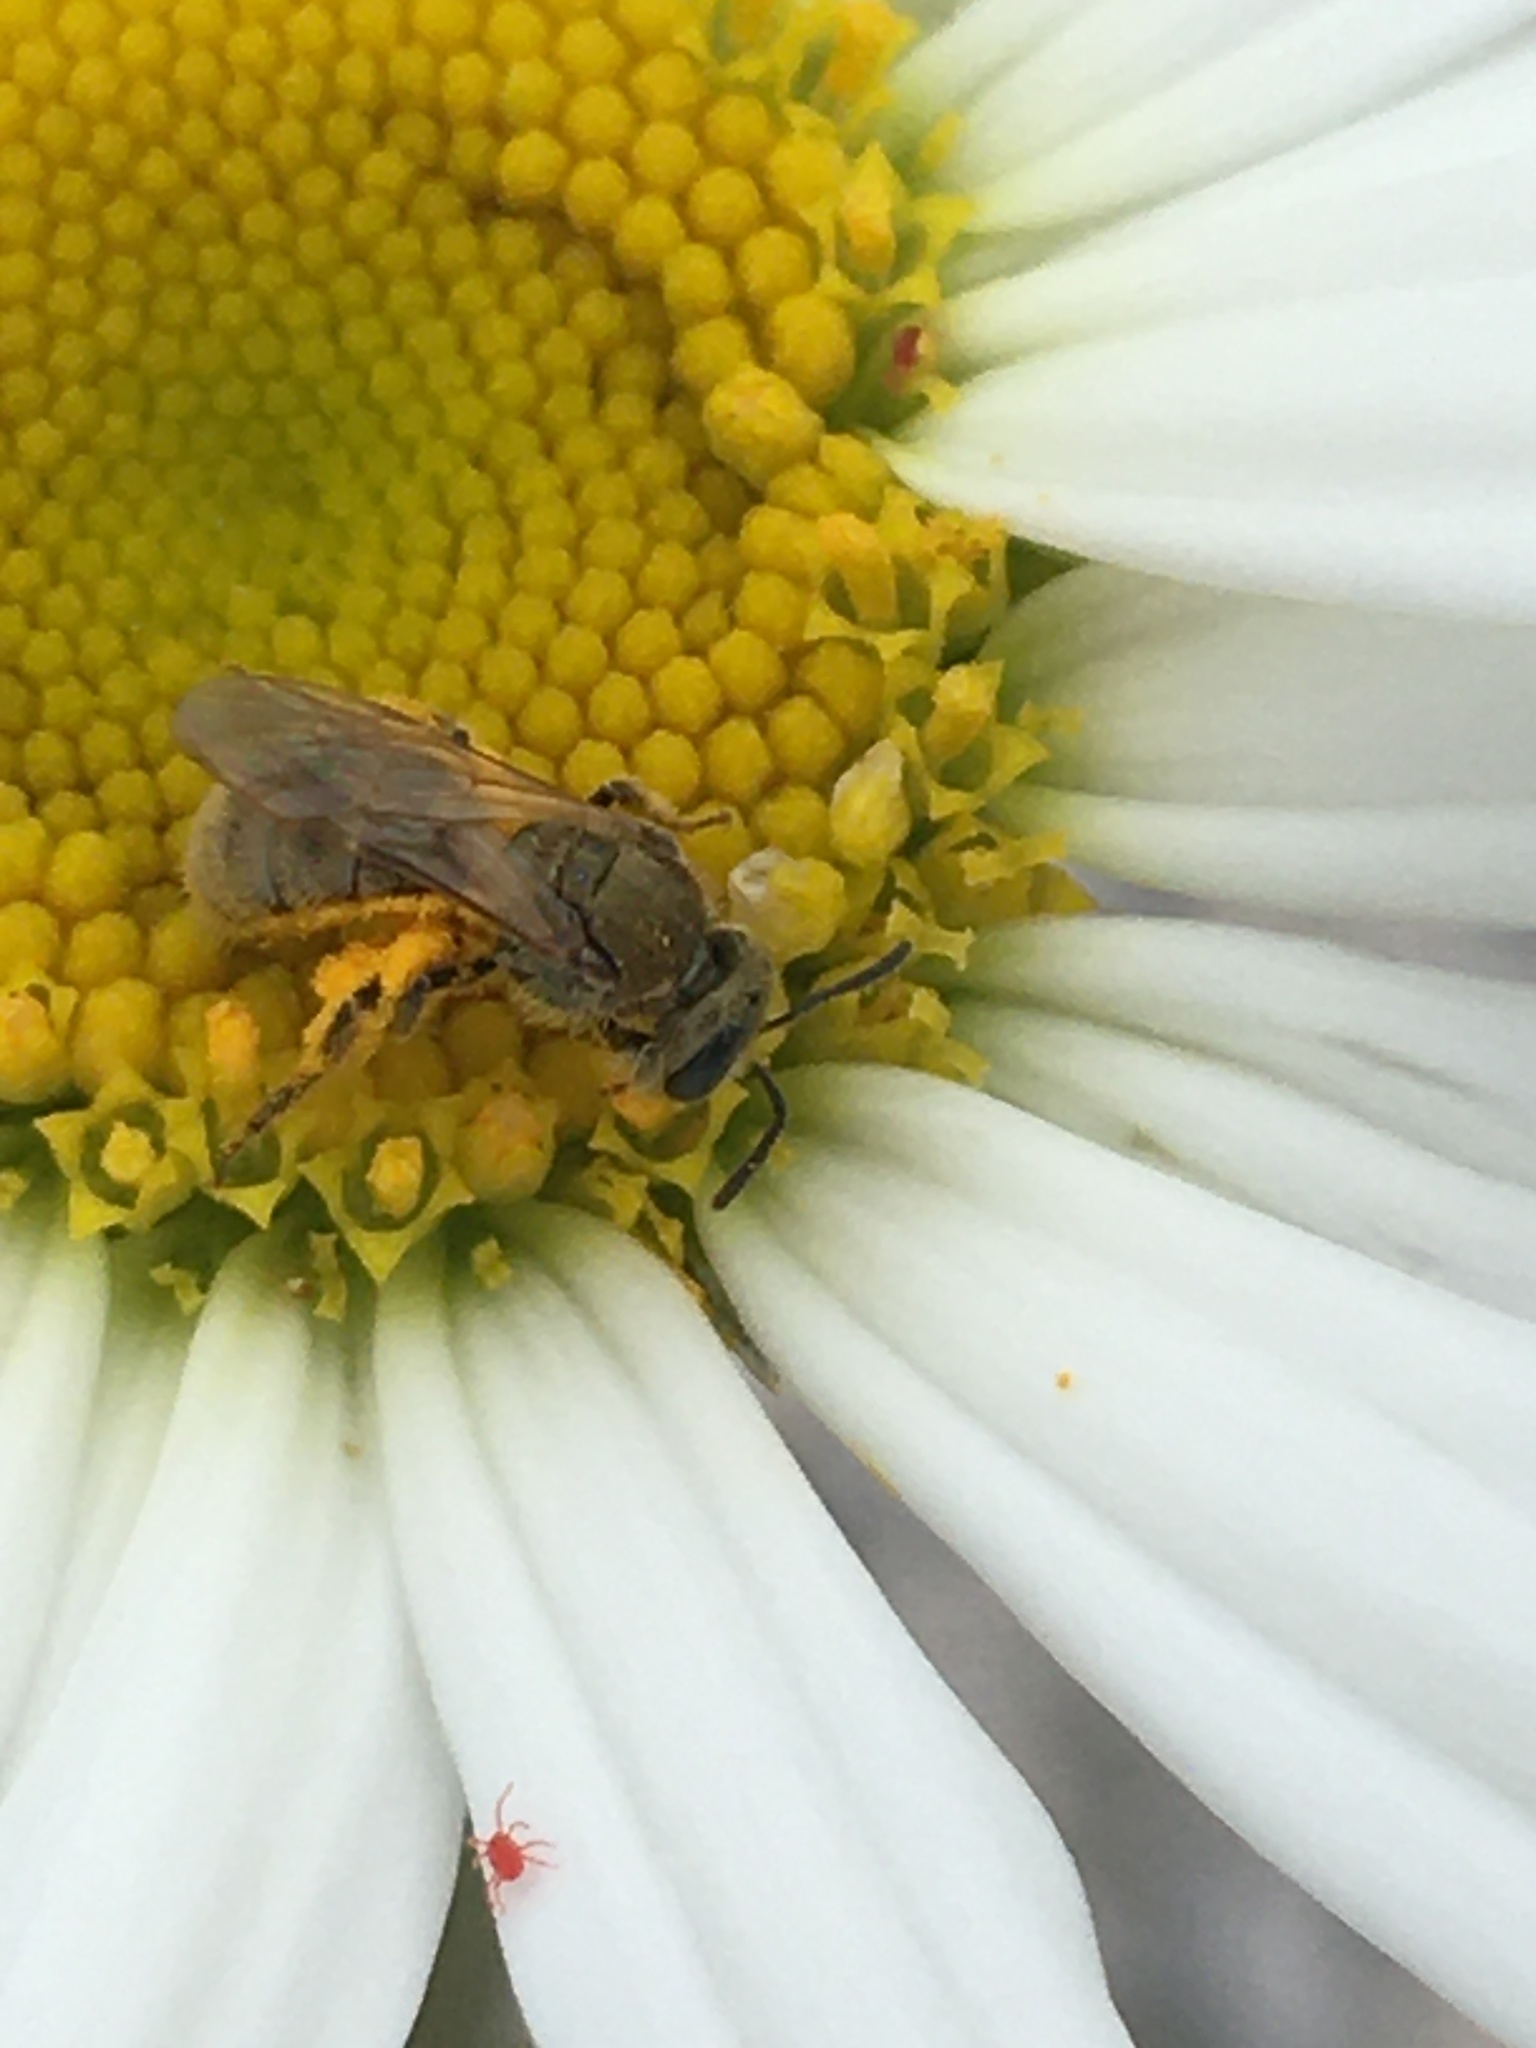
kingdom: Animalia
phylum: Arthropoda
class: Insecta
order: Hymenoptera
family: Halictidae
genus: Dialictus
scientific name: Dialictus
